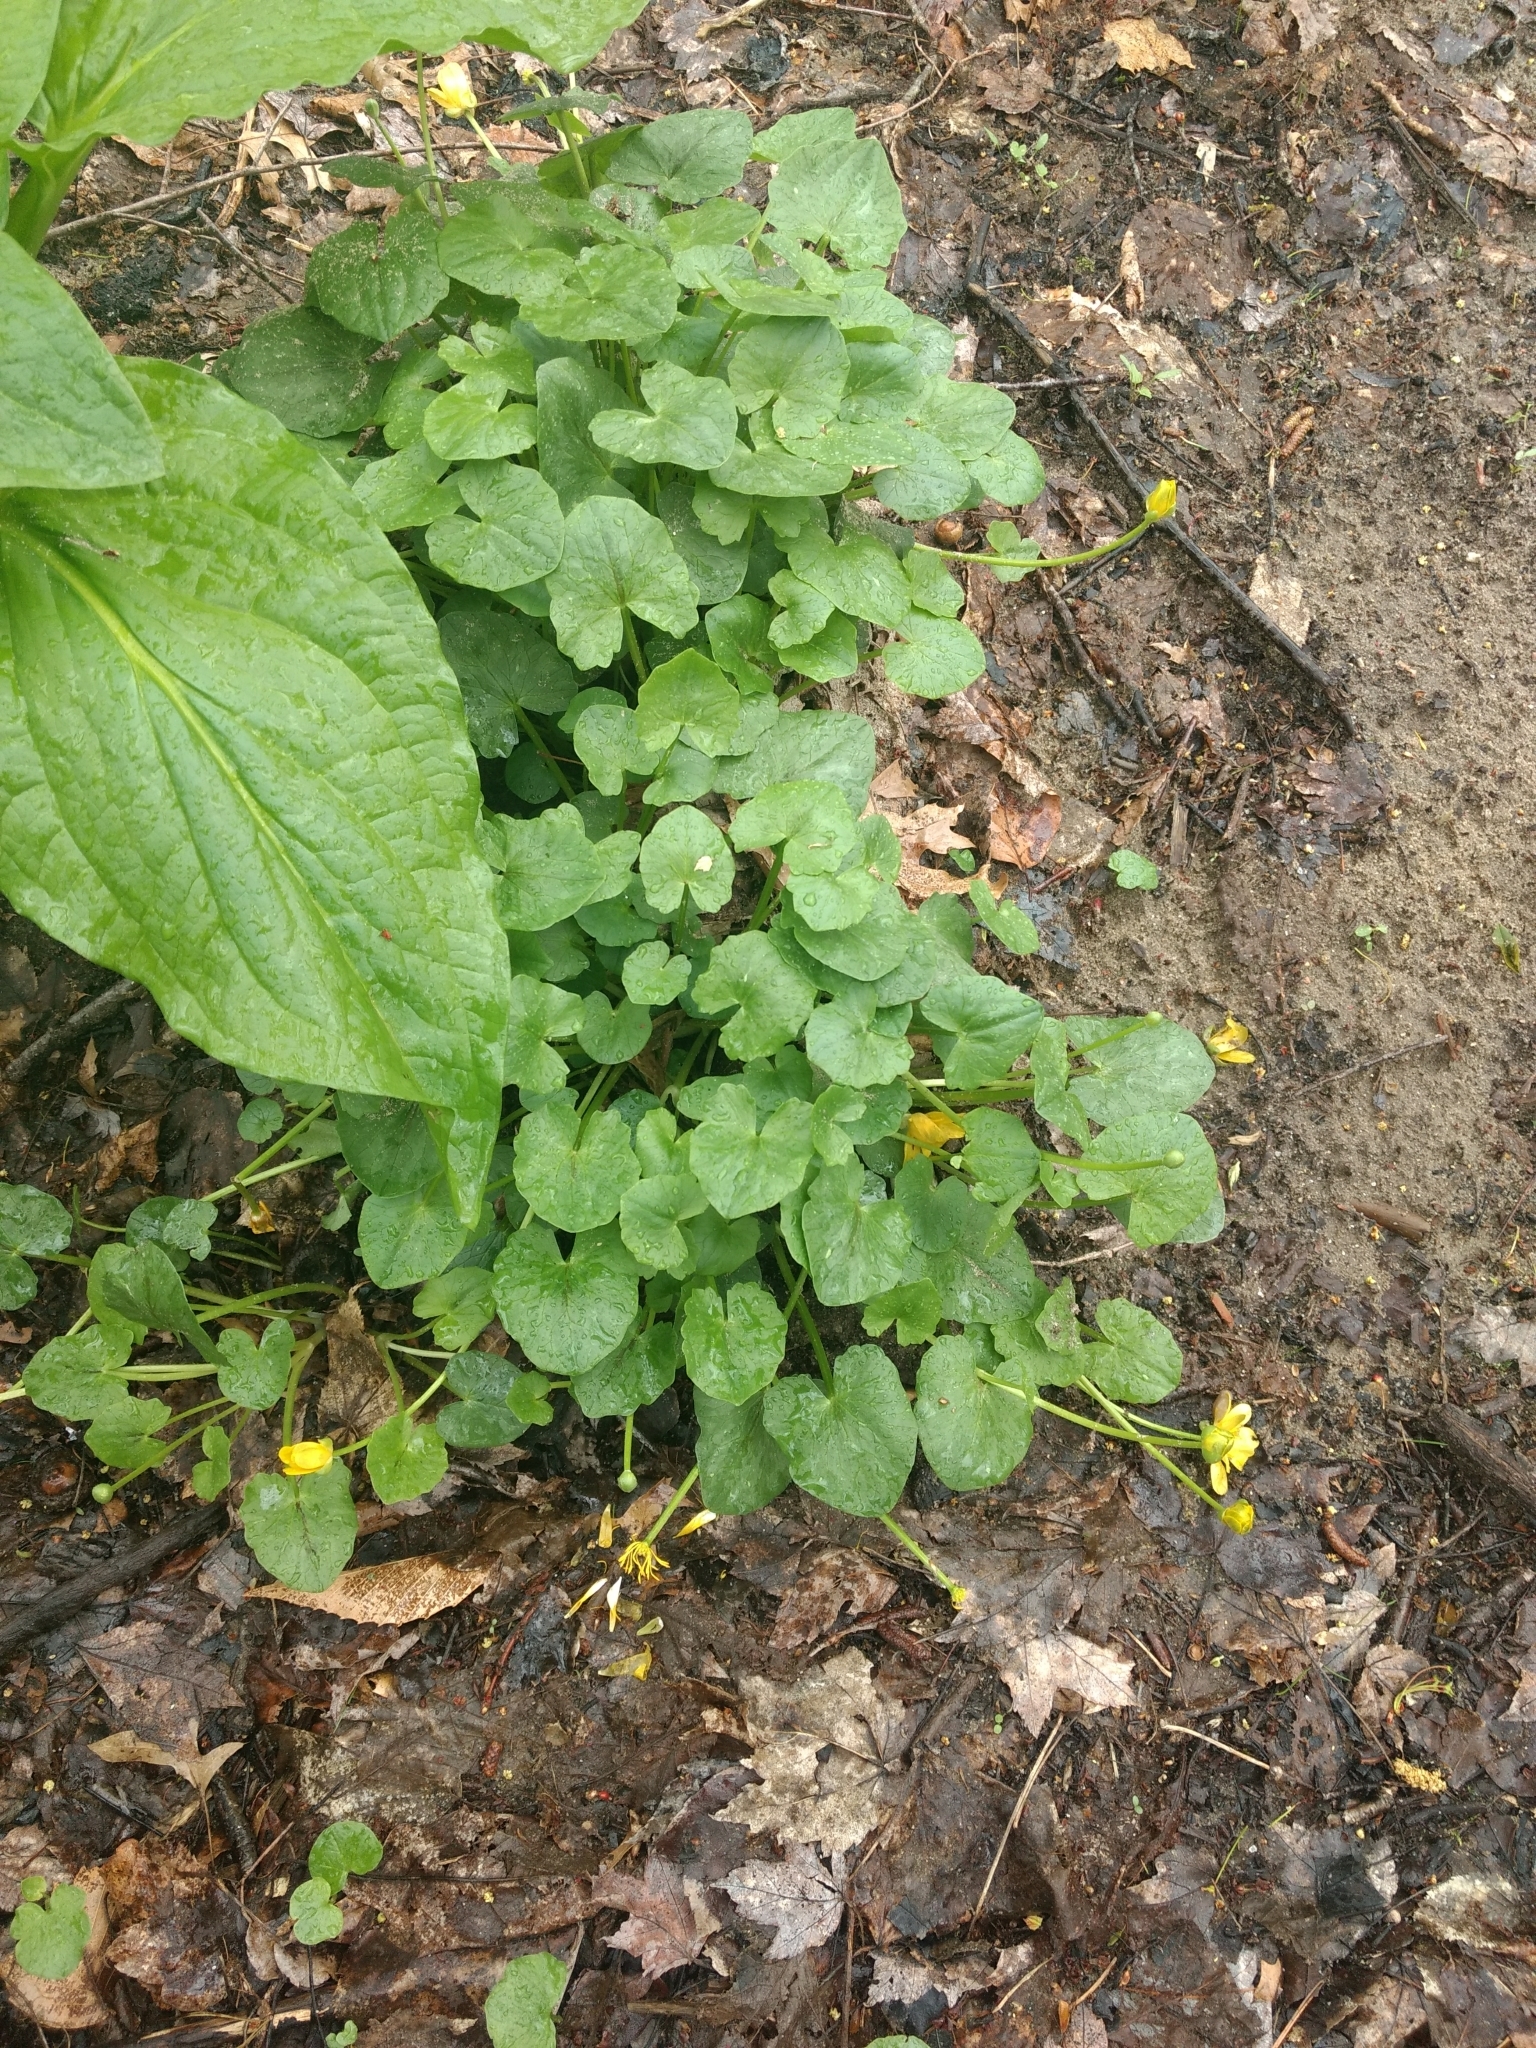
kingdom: Plantae
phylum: Tracheophyta
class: Magnoliopsida
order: Ranunculales
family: Ranunculaceae
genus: Ficaria
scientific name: Ficaria verna
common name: Lesser celandine
